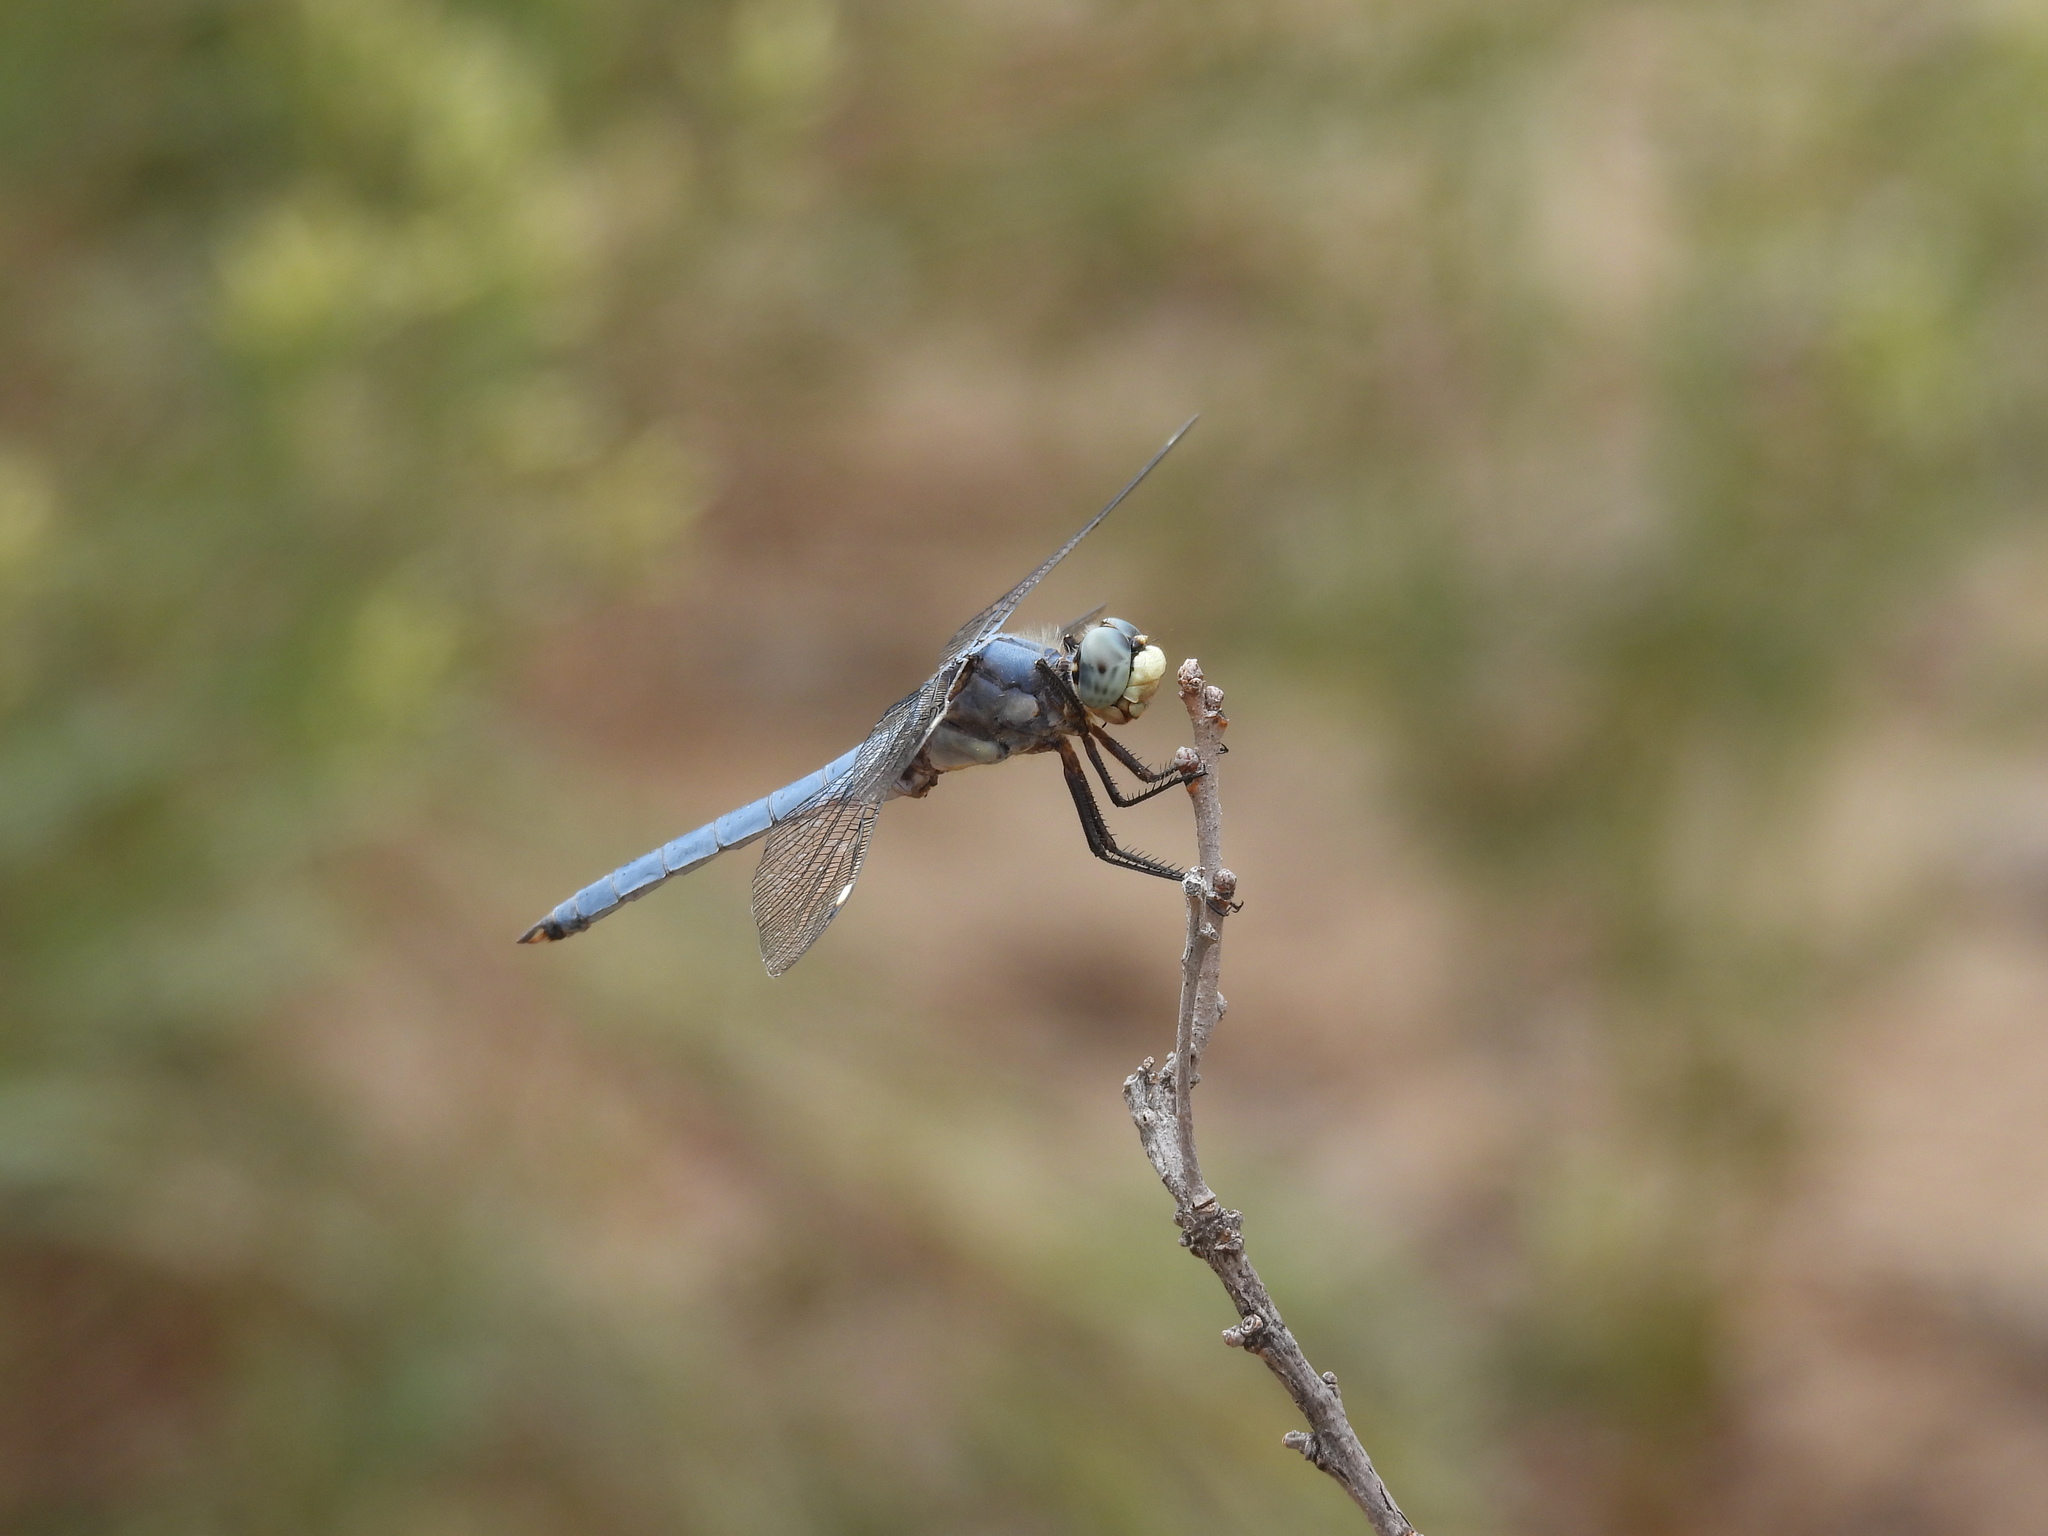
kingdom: Animalia
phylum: Arthropoda
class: Insecta
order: Odonata
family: Libellulidae
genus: Libellula
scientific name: Libellula comanche
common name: Comanche skimmer
